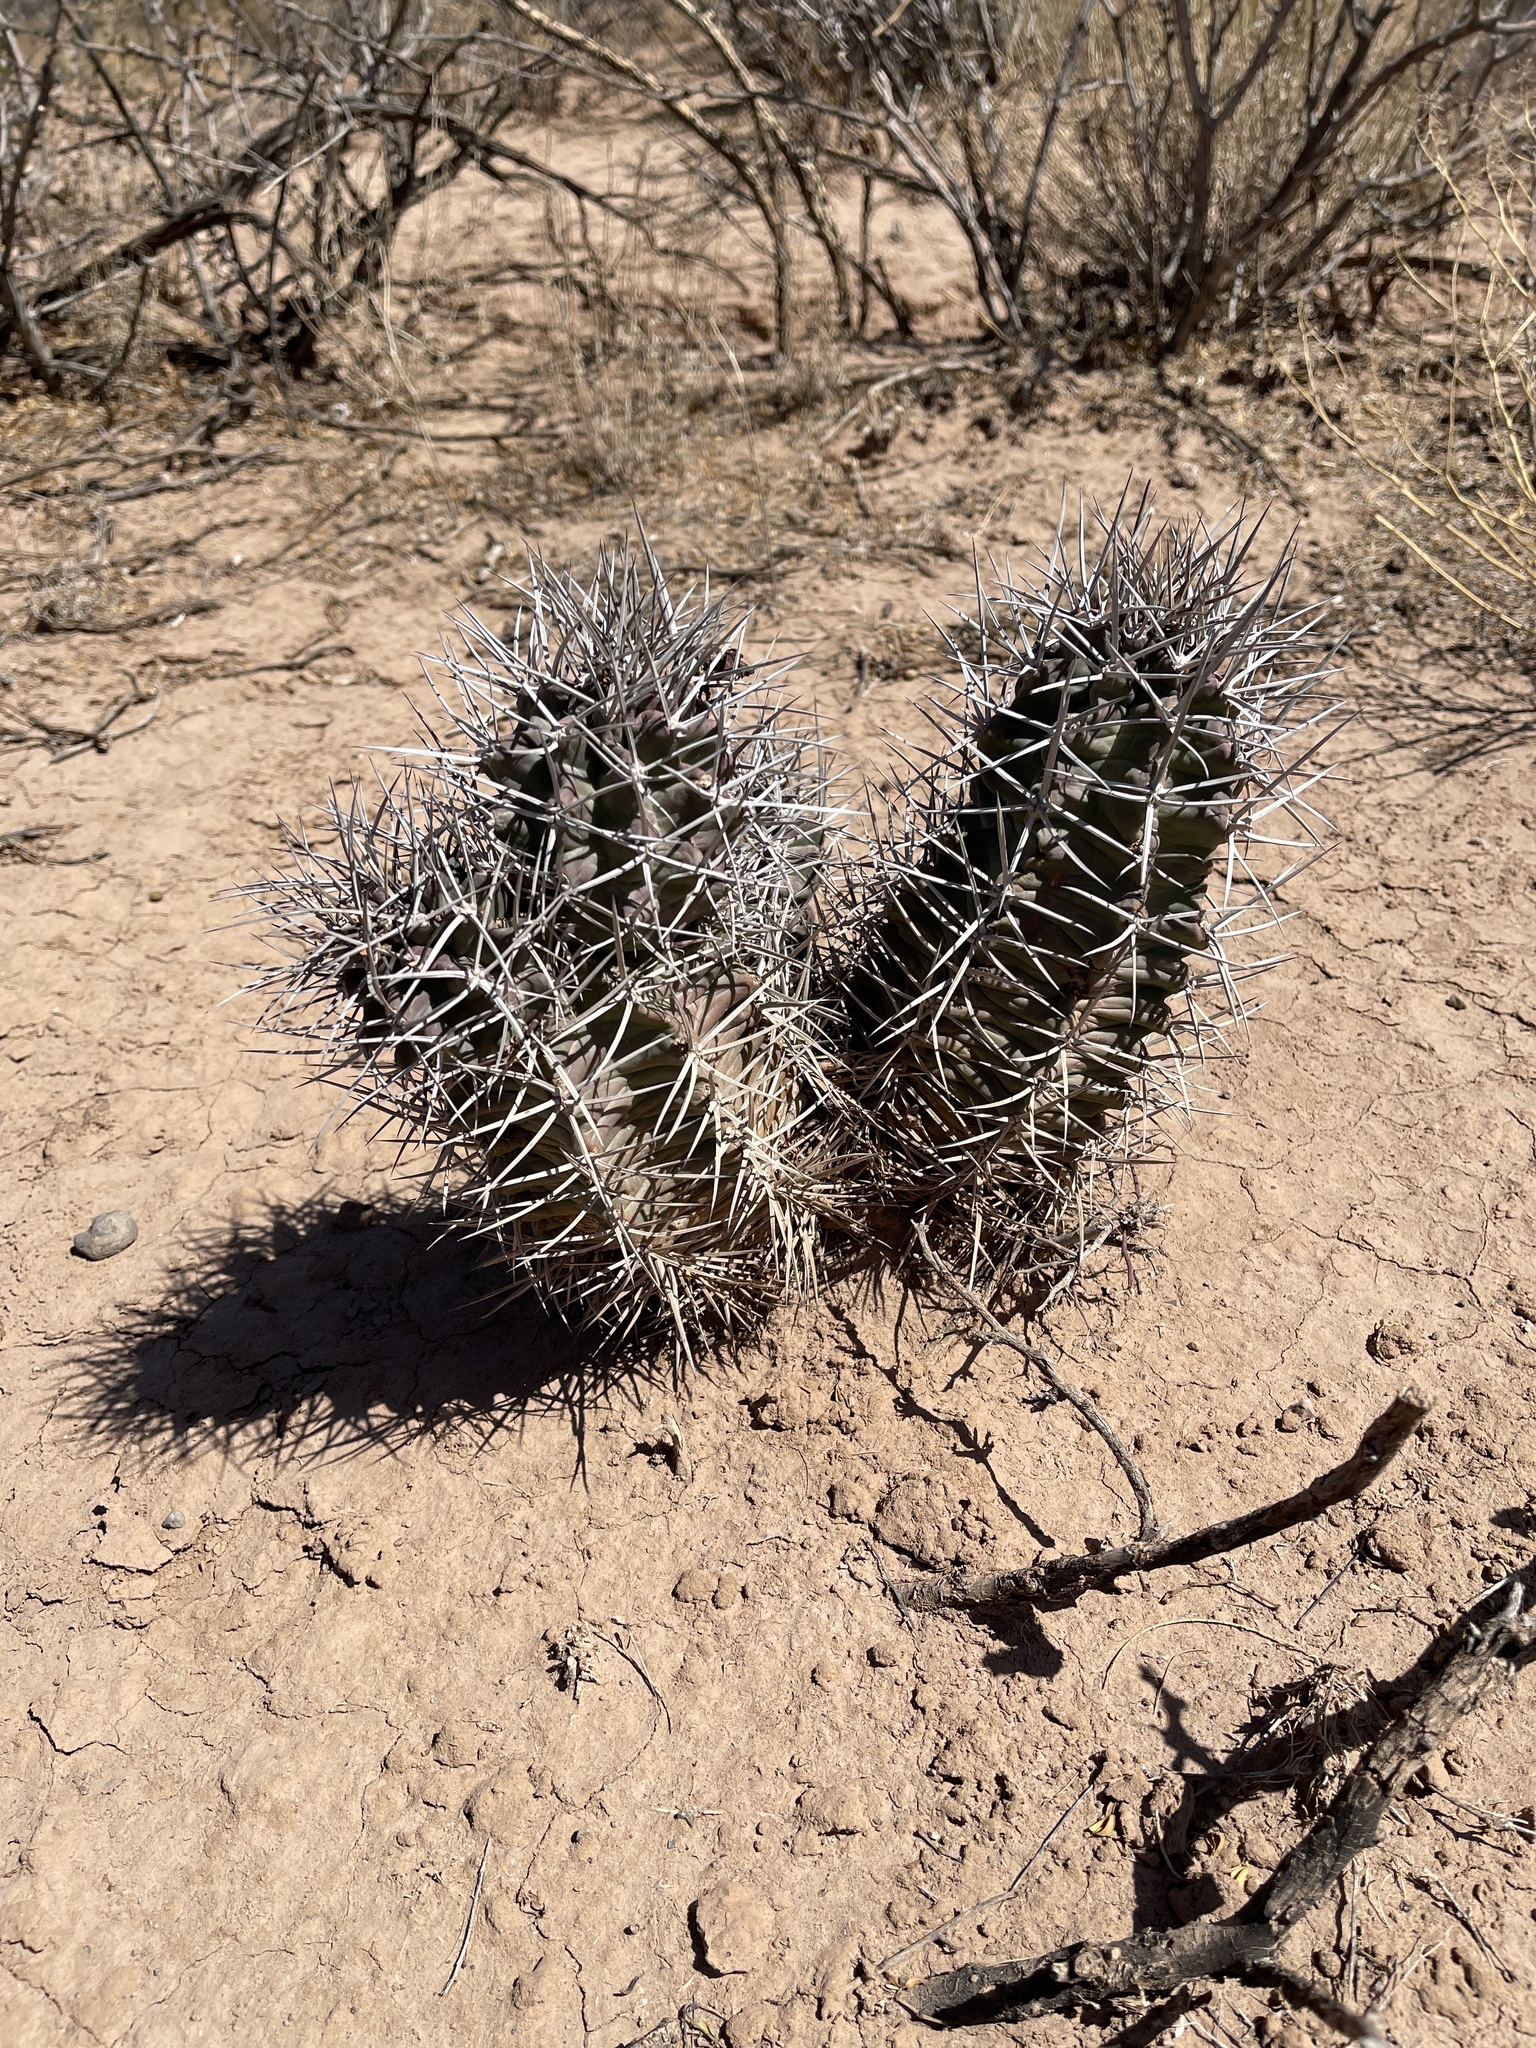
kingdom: Plantae
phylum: Tracheophyta
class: Magnoliopsida
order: Caryophyllales
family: Cactaceae
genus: Echinocereus
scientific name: Echinocereus triglochidiatus
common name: Claretcup hedgehog
